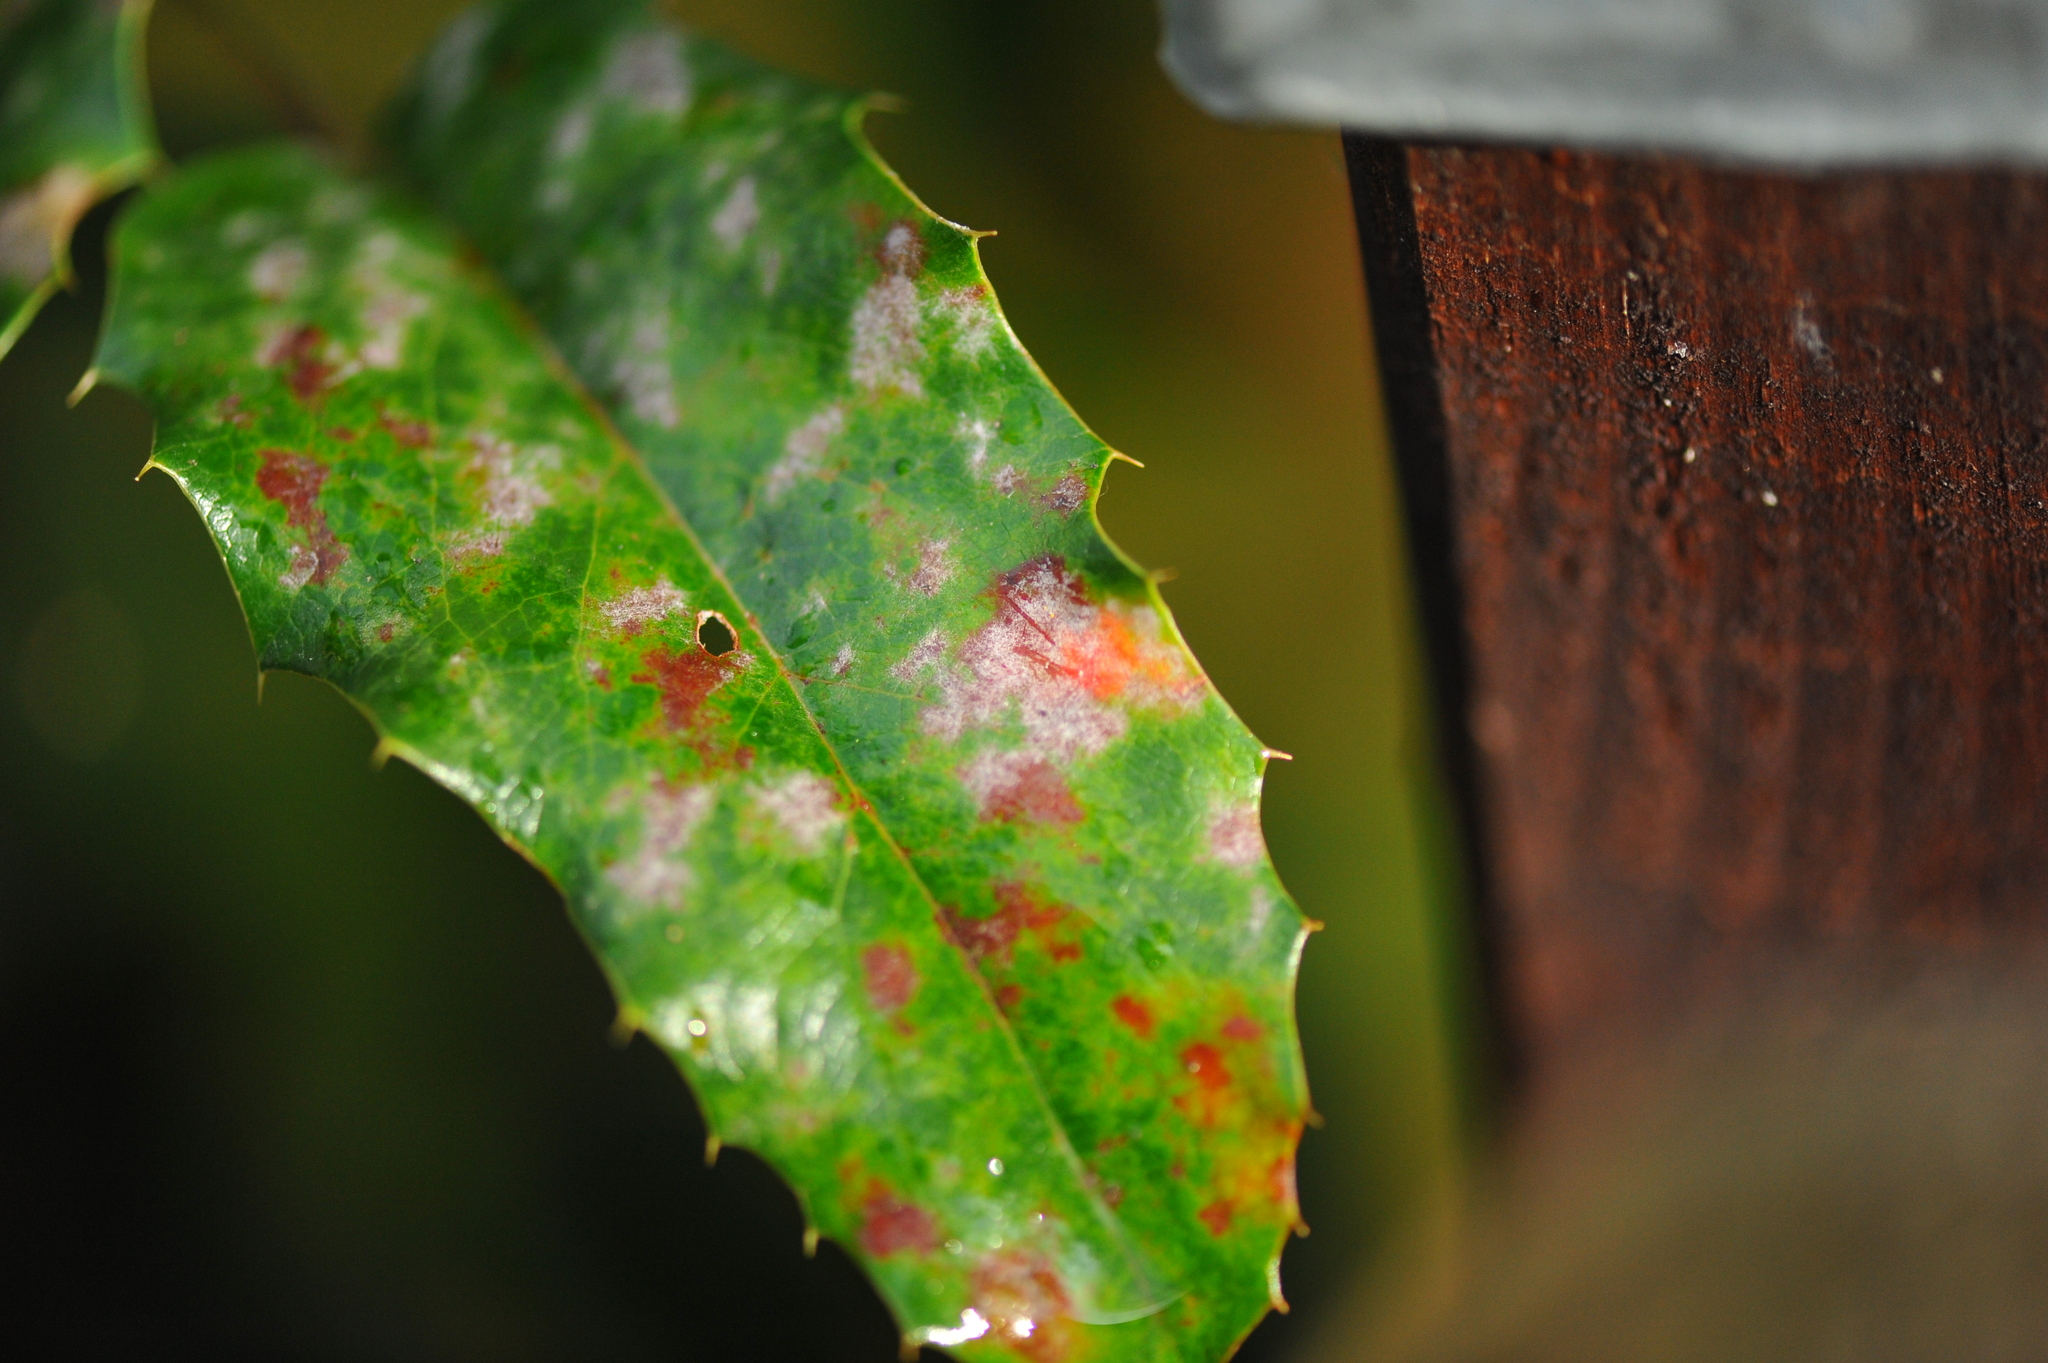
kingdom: Fungi
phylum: Ascomycota
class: Leotiomycetes
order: Helotiales
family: Erysiphaceae
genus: Erysiphe
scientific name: Erysiphe berberidis
